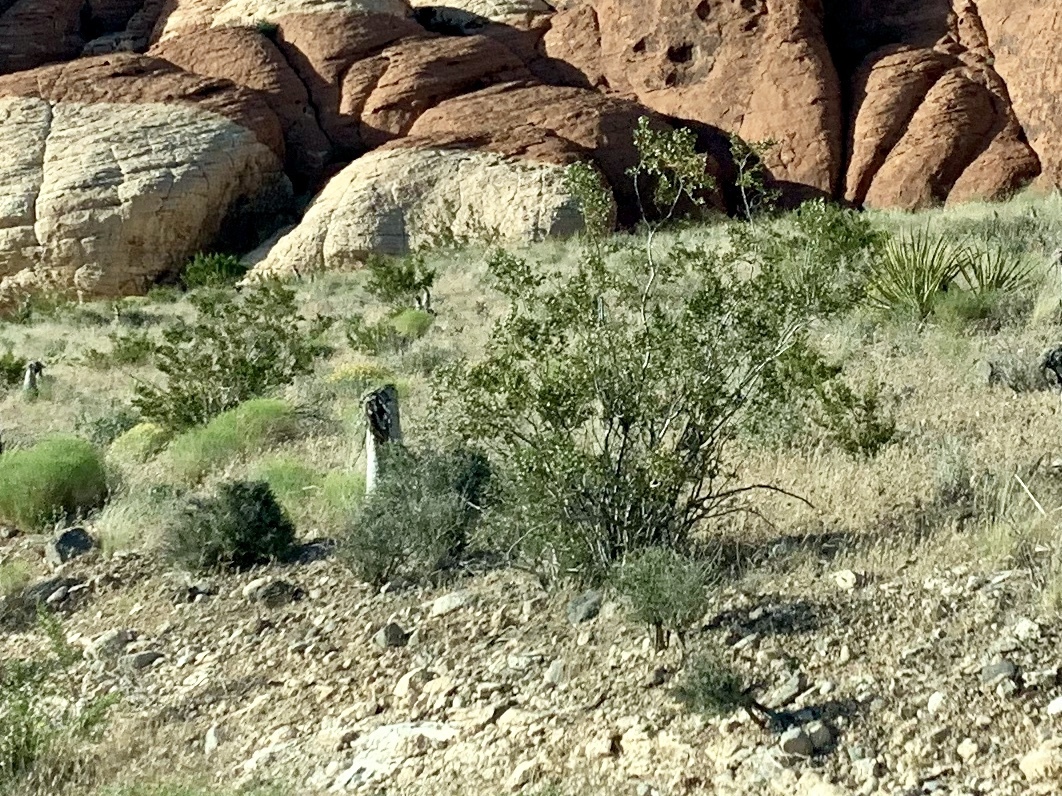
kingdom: Plantae
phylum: Tracheophyta
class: Magnoliopsida
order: Zygophyllales
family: Zygophyllaceae
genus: Larrea
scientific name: Larrea tridentata
